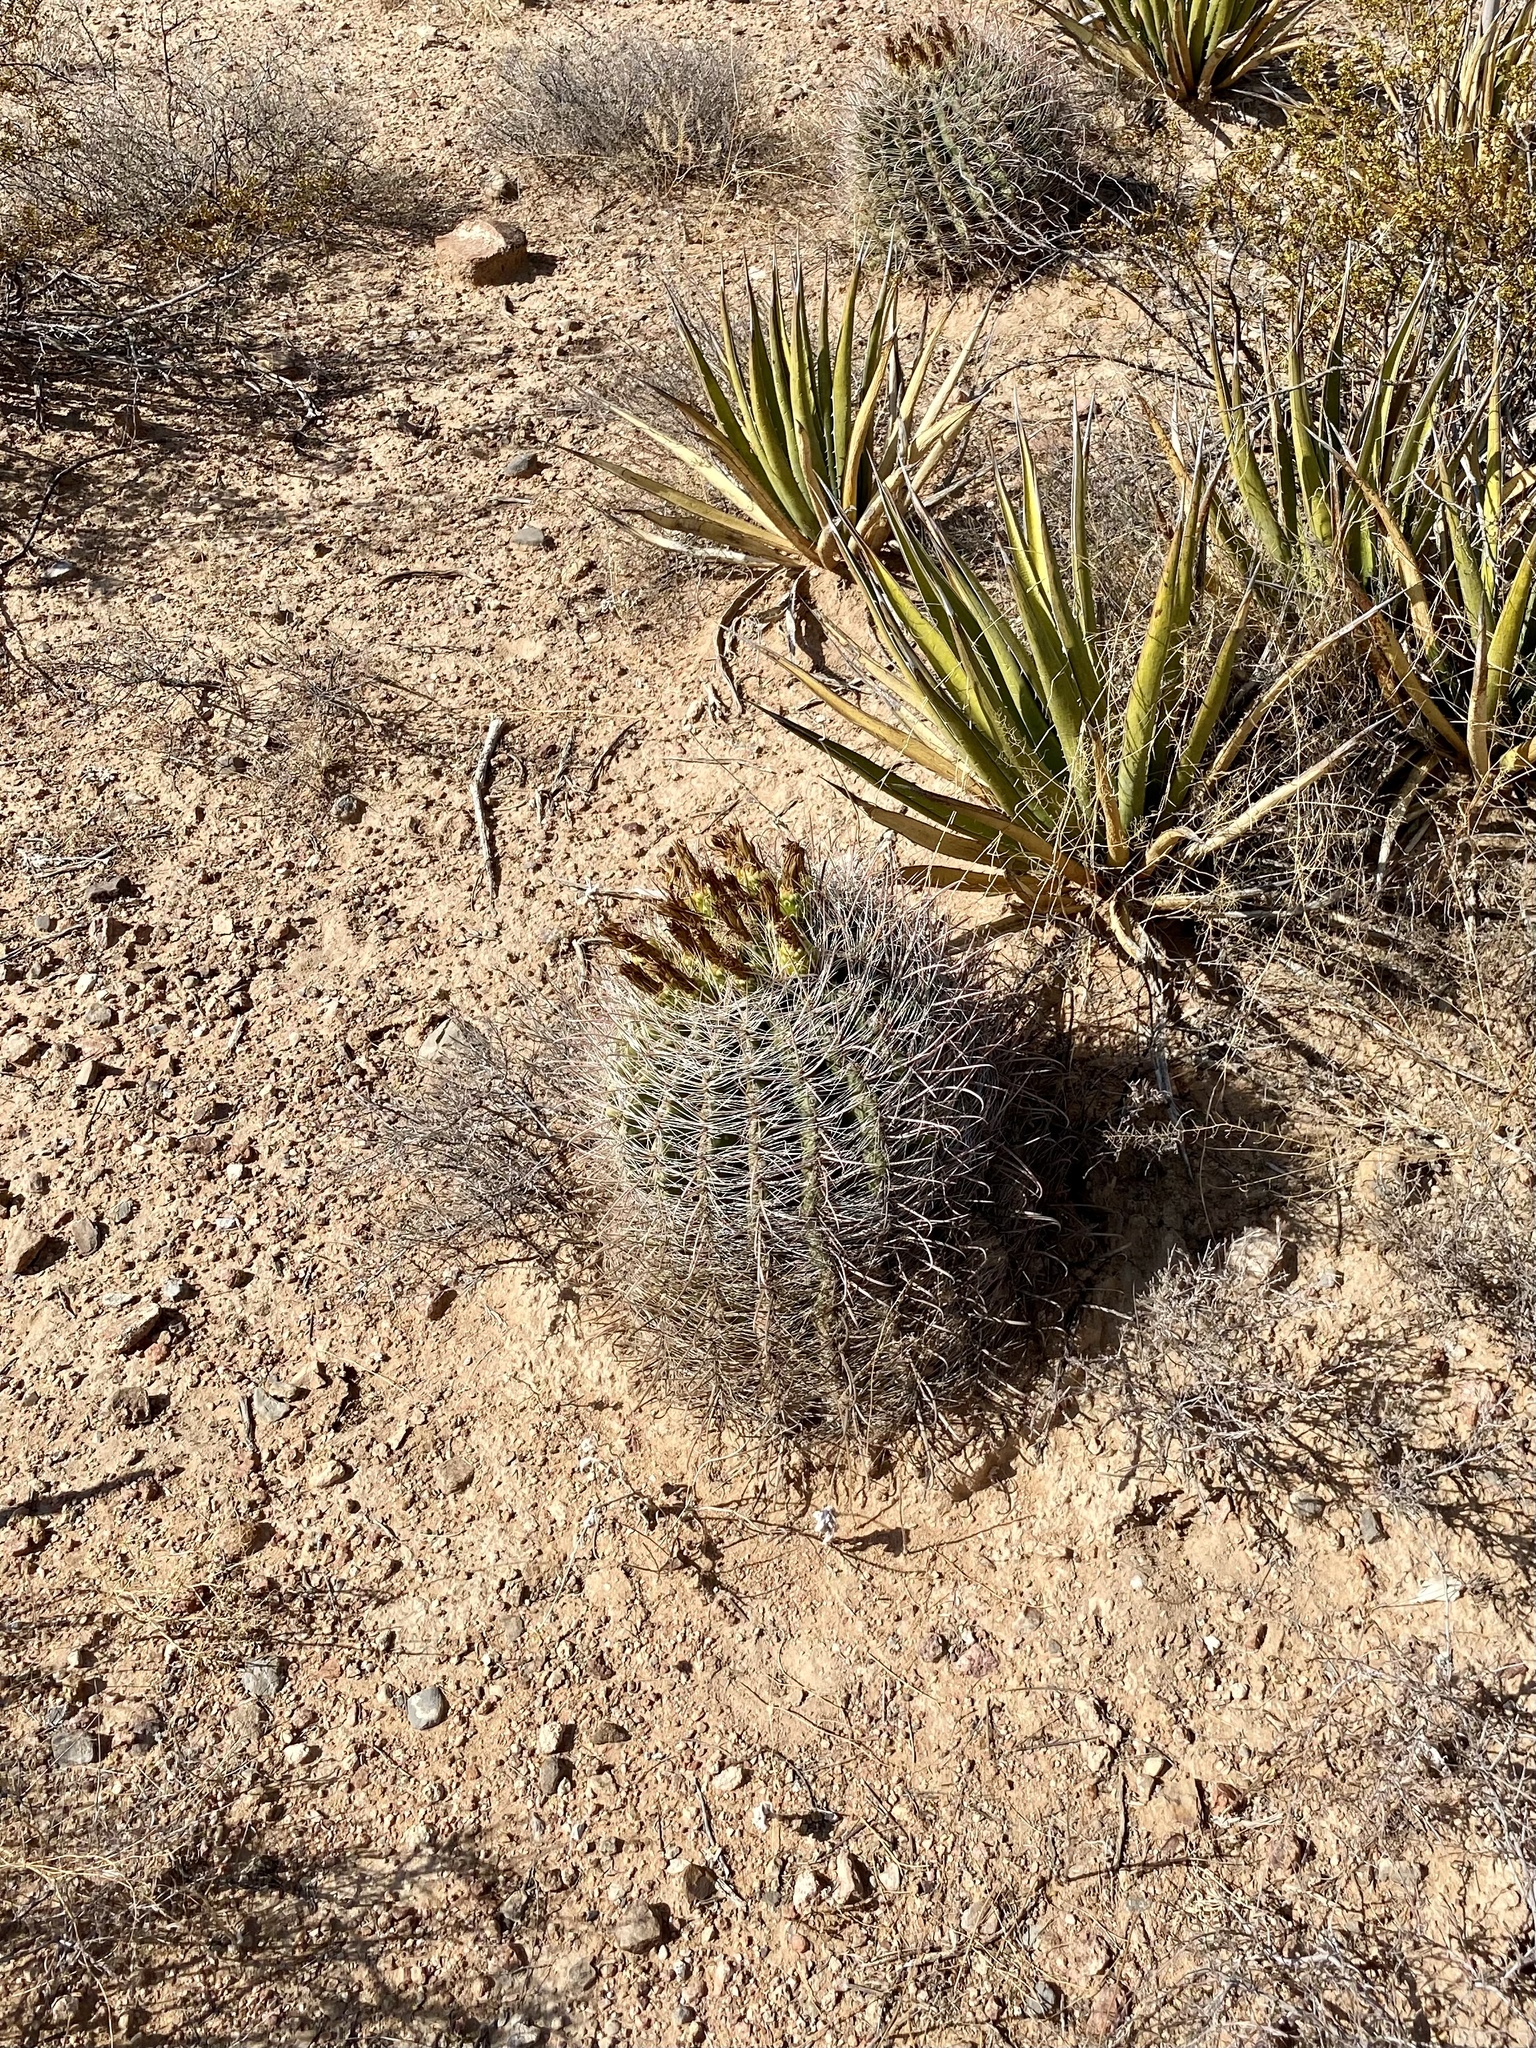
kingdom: Plantae
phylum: Tracheophyta
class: Magnoliopsida
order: Caryophyllales
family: Cactaceae
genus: Ferocactus
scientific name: Ferocactus wislizeni
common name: Candy barrel cactus
